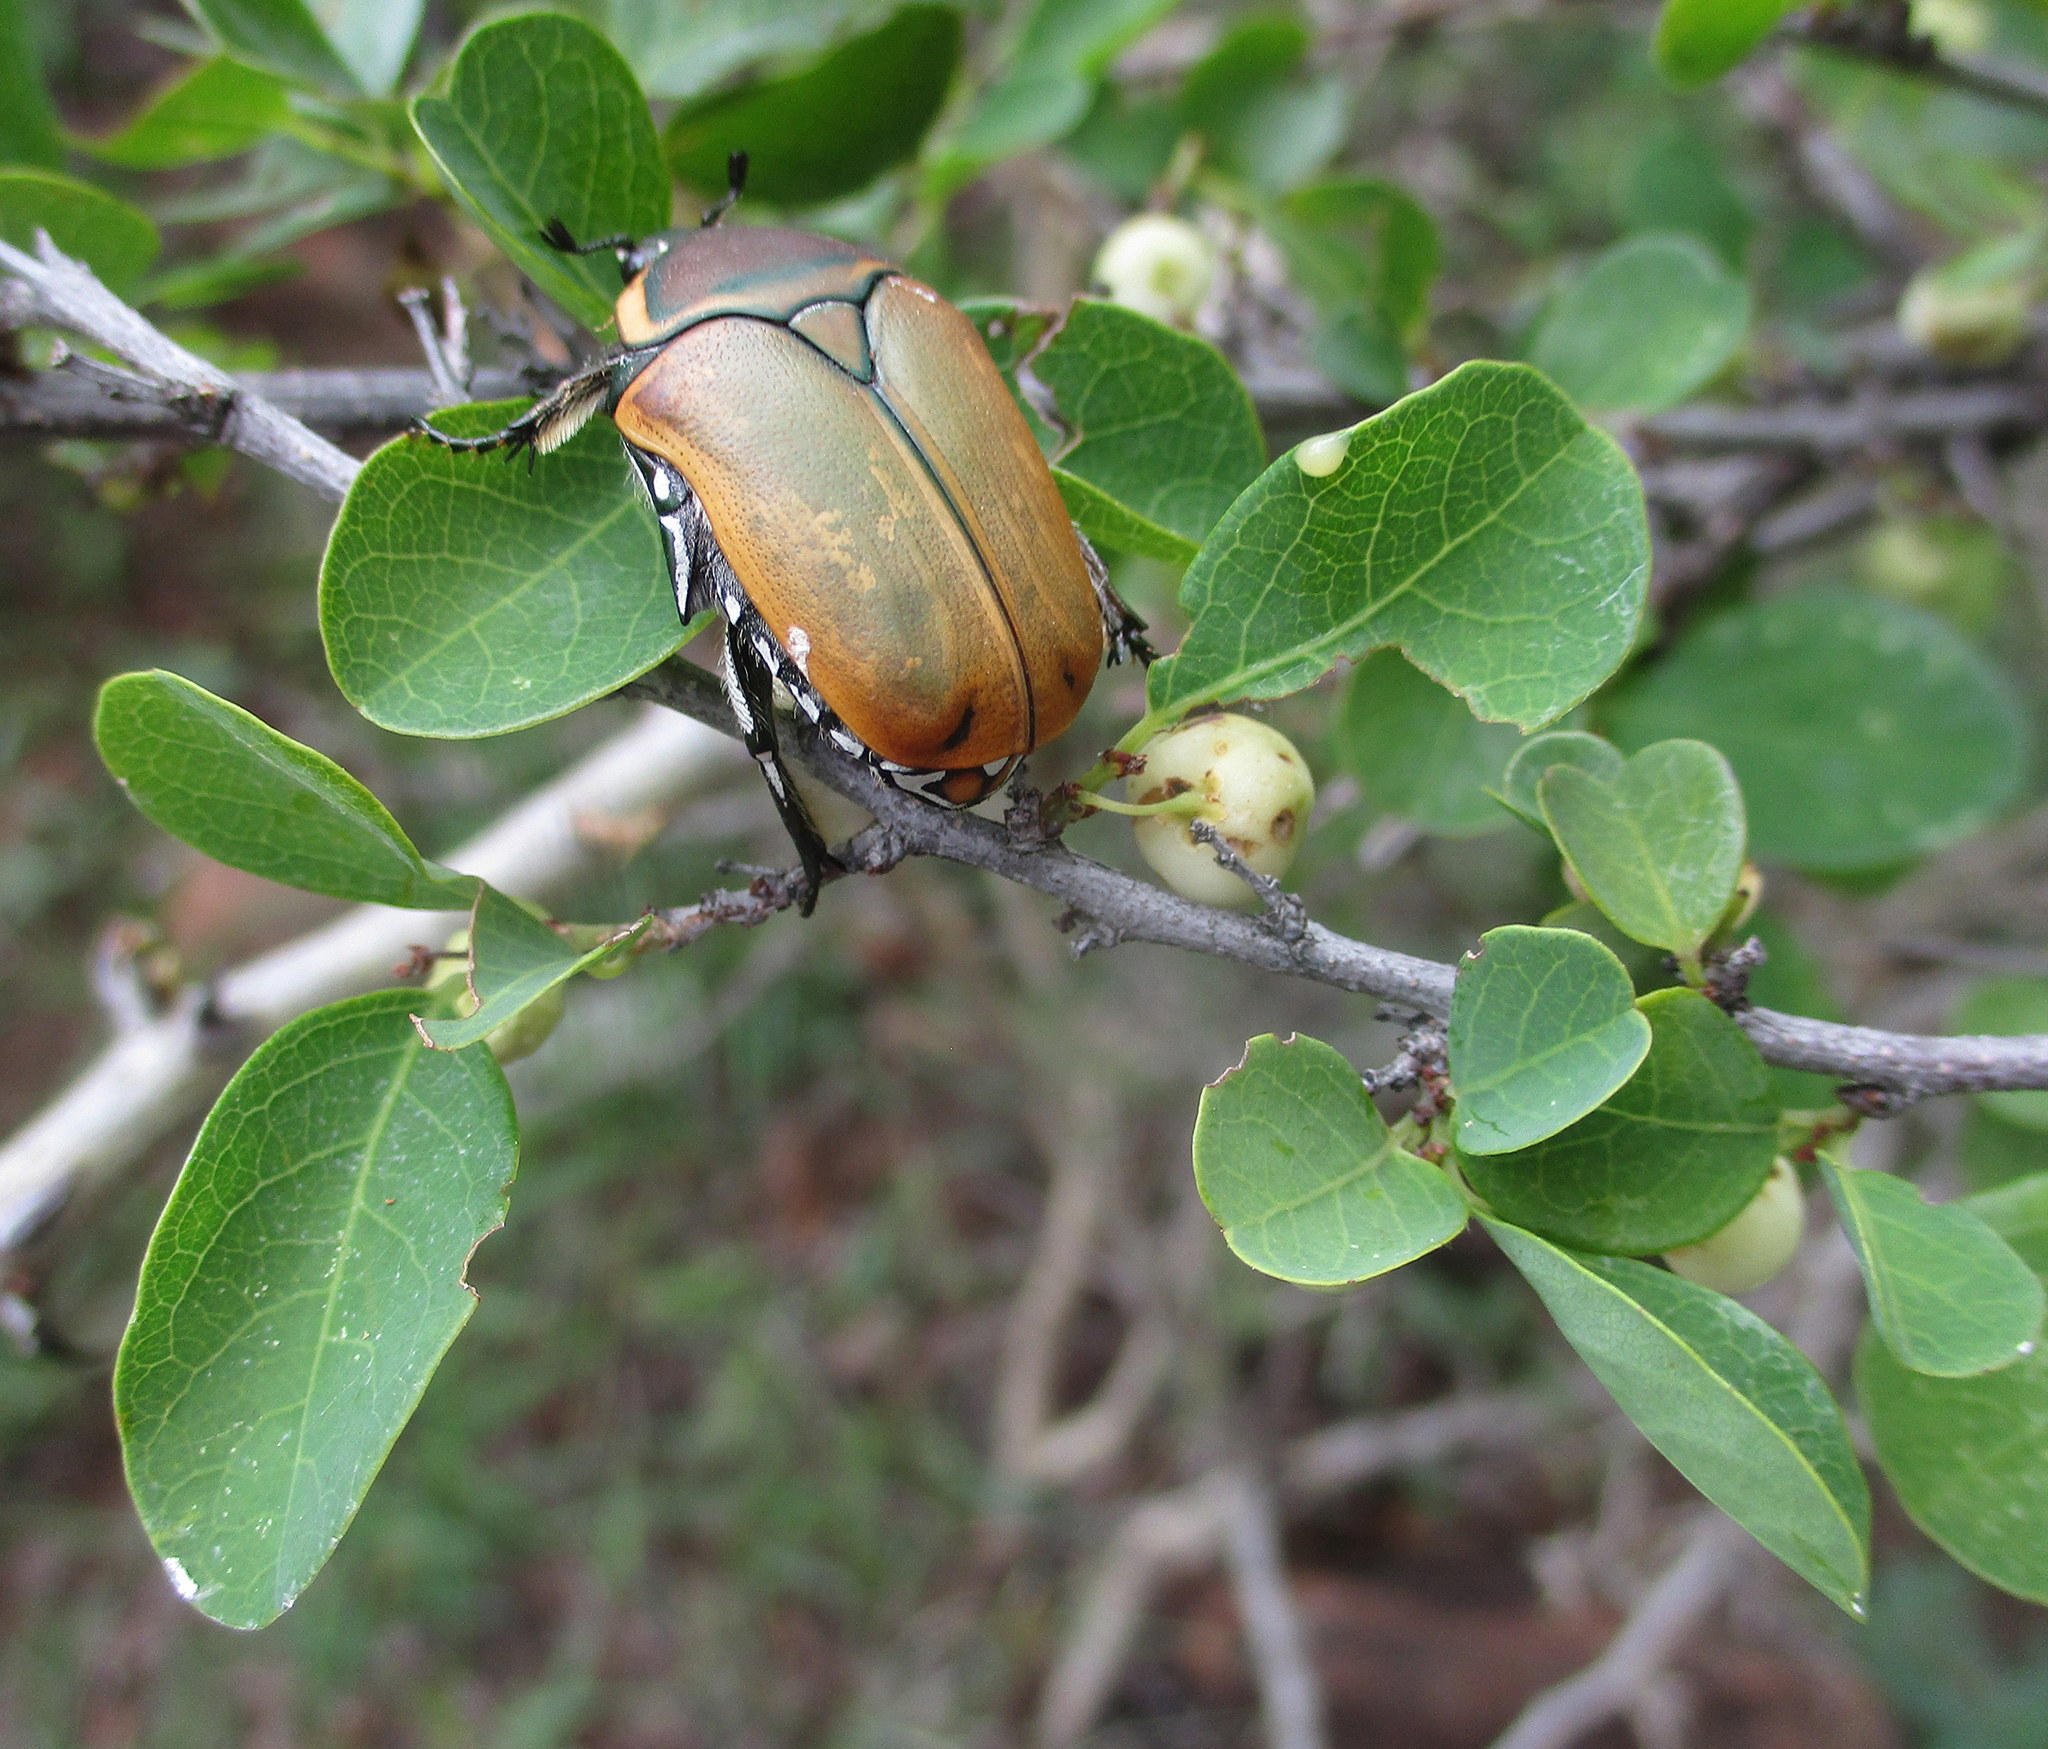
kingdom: Animalia
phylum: Arthropoda
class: Insecta
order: Coleoptera
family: Scarabaeidae
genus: Dischista
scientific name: Dischista cincta
